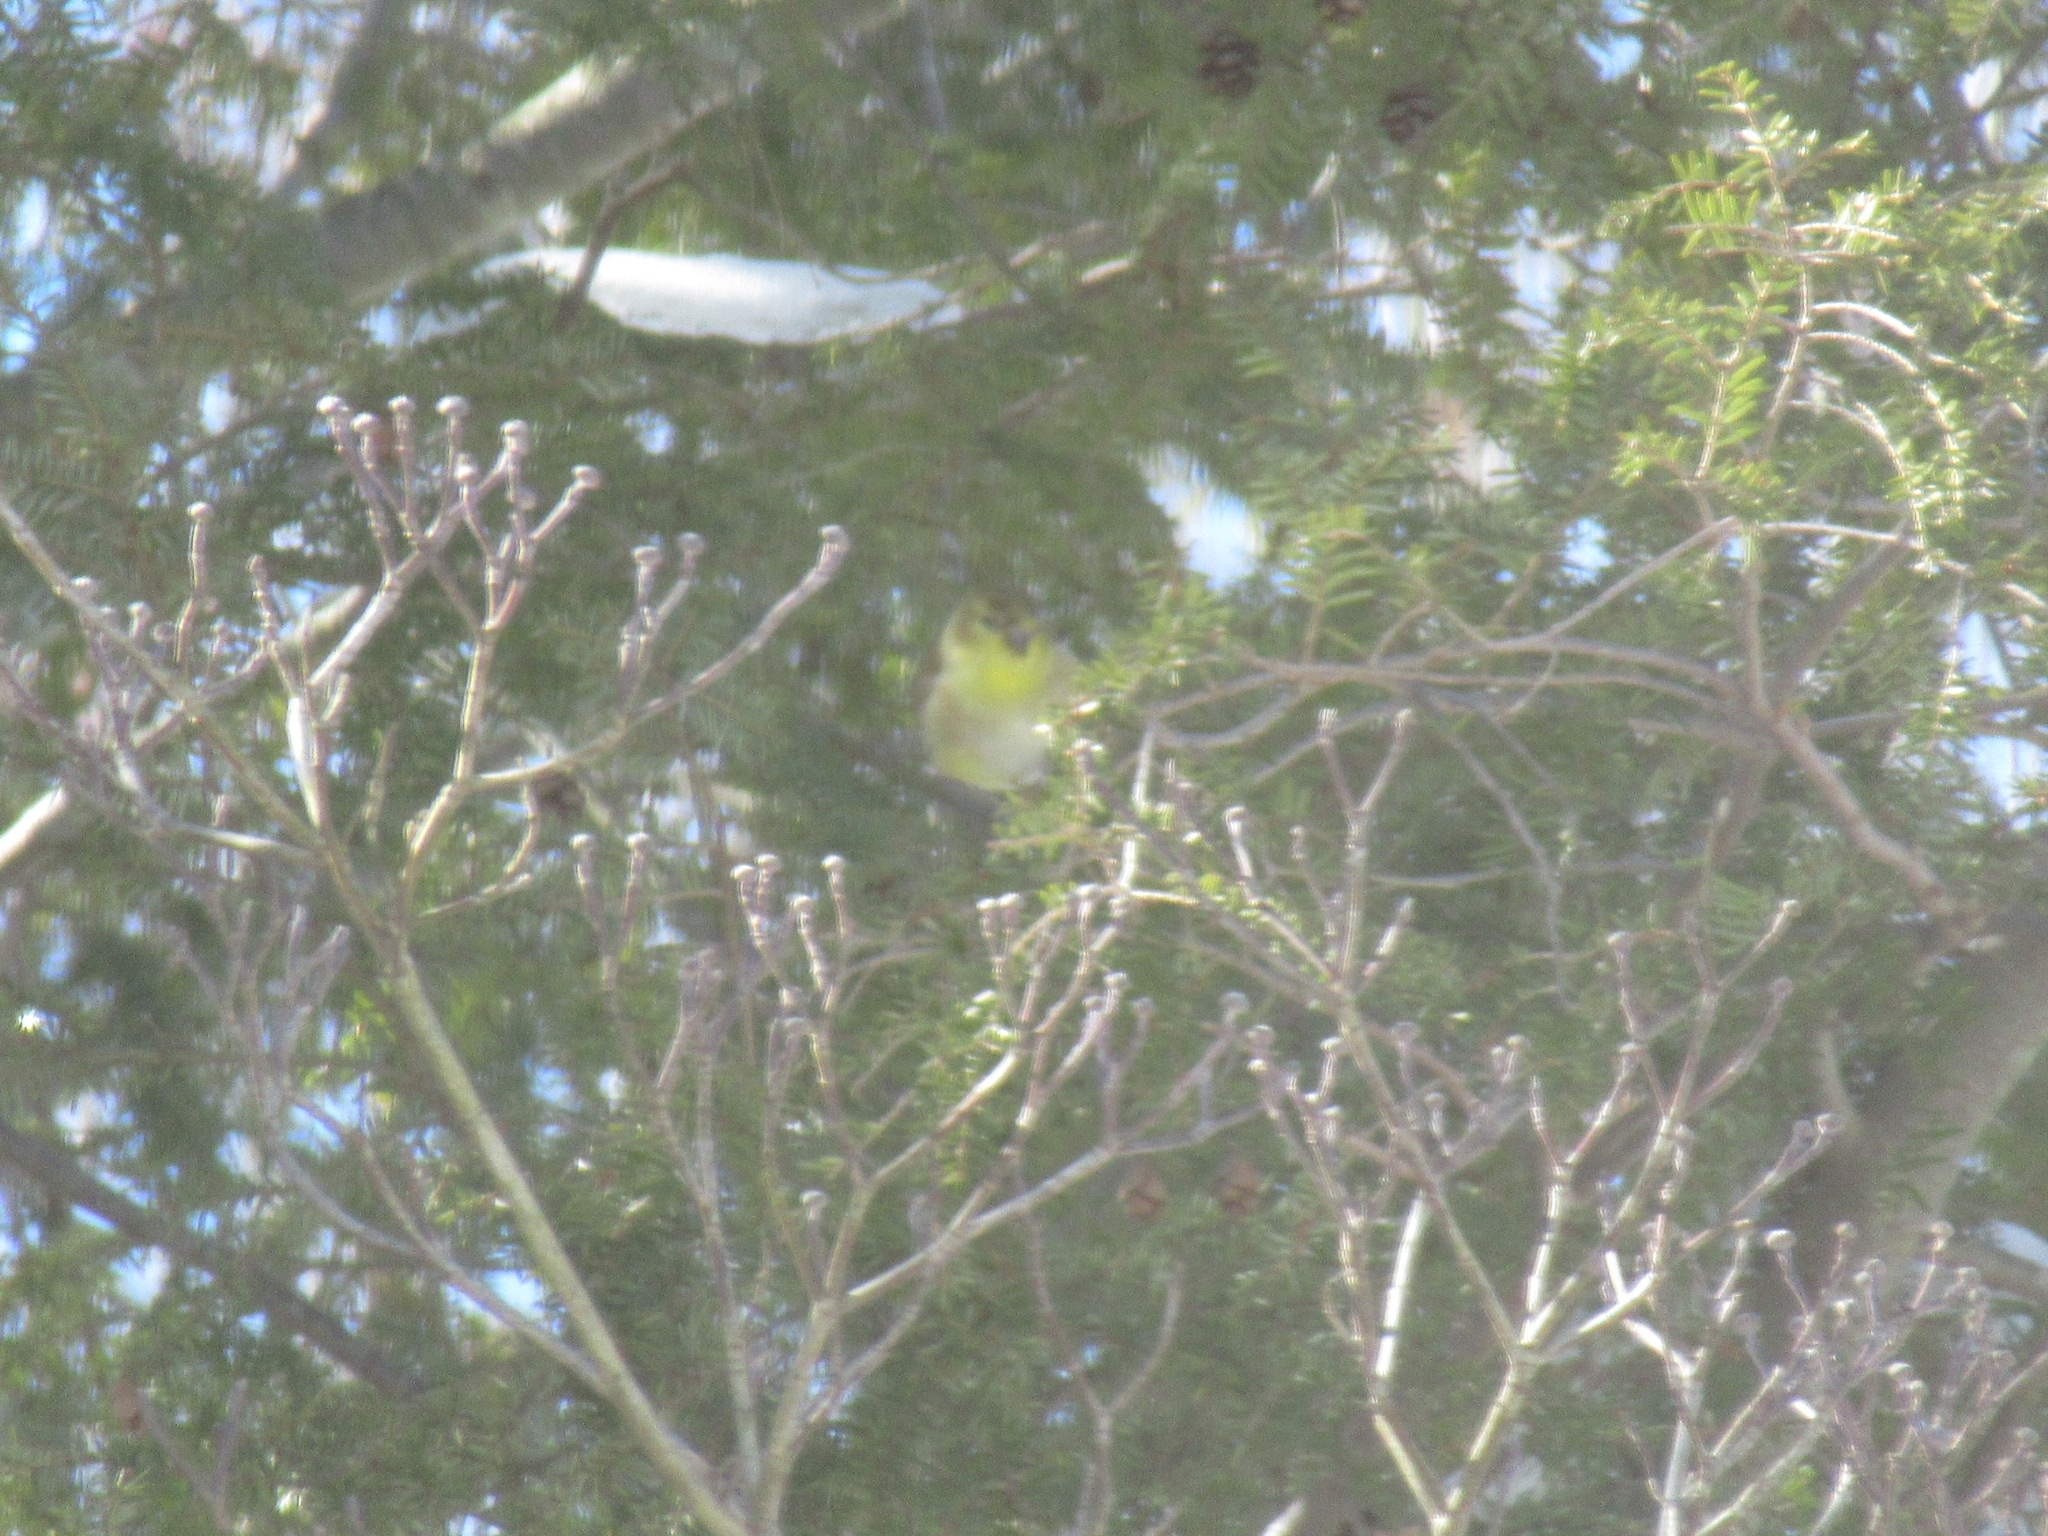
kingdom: Animalia
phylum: Chordata
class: Aves
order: Passeriformes
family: Fringillidae
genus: Spinus
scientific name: Spinus tristis
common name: American goldfinch
